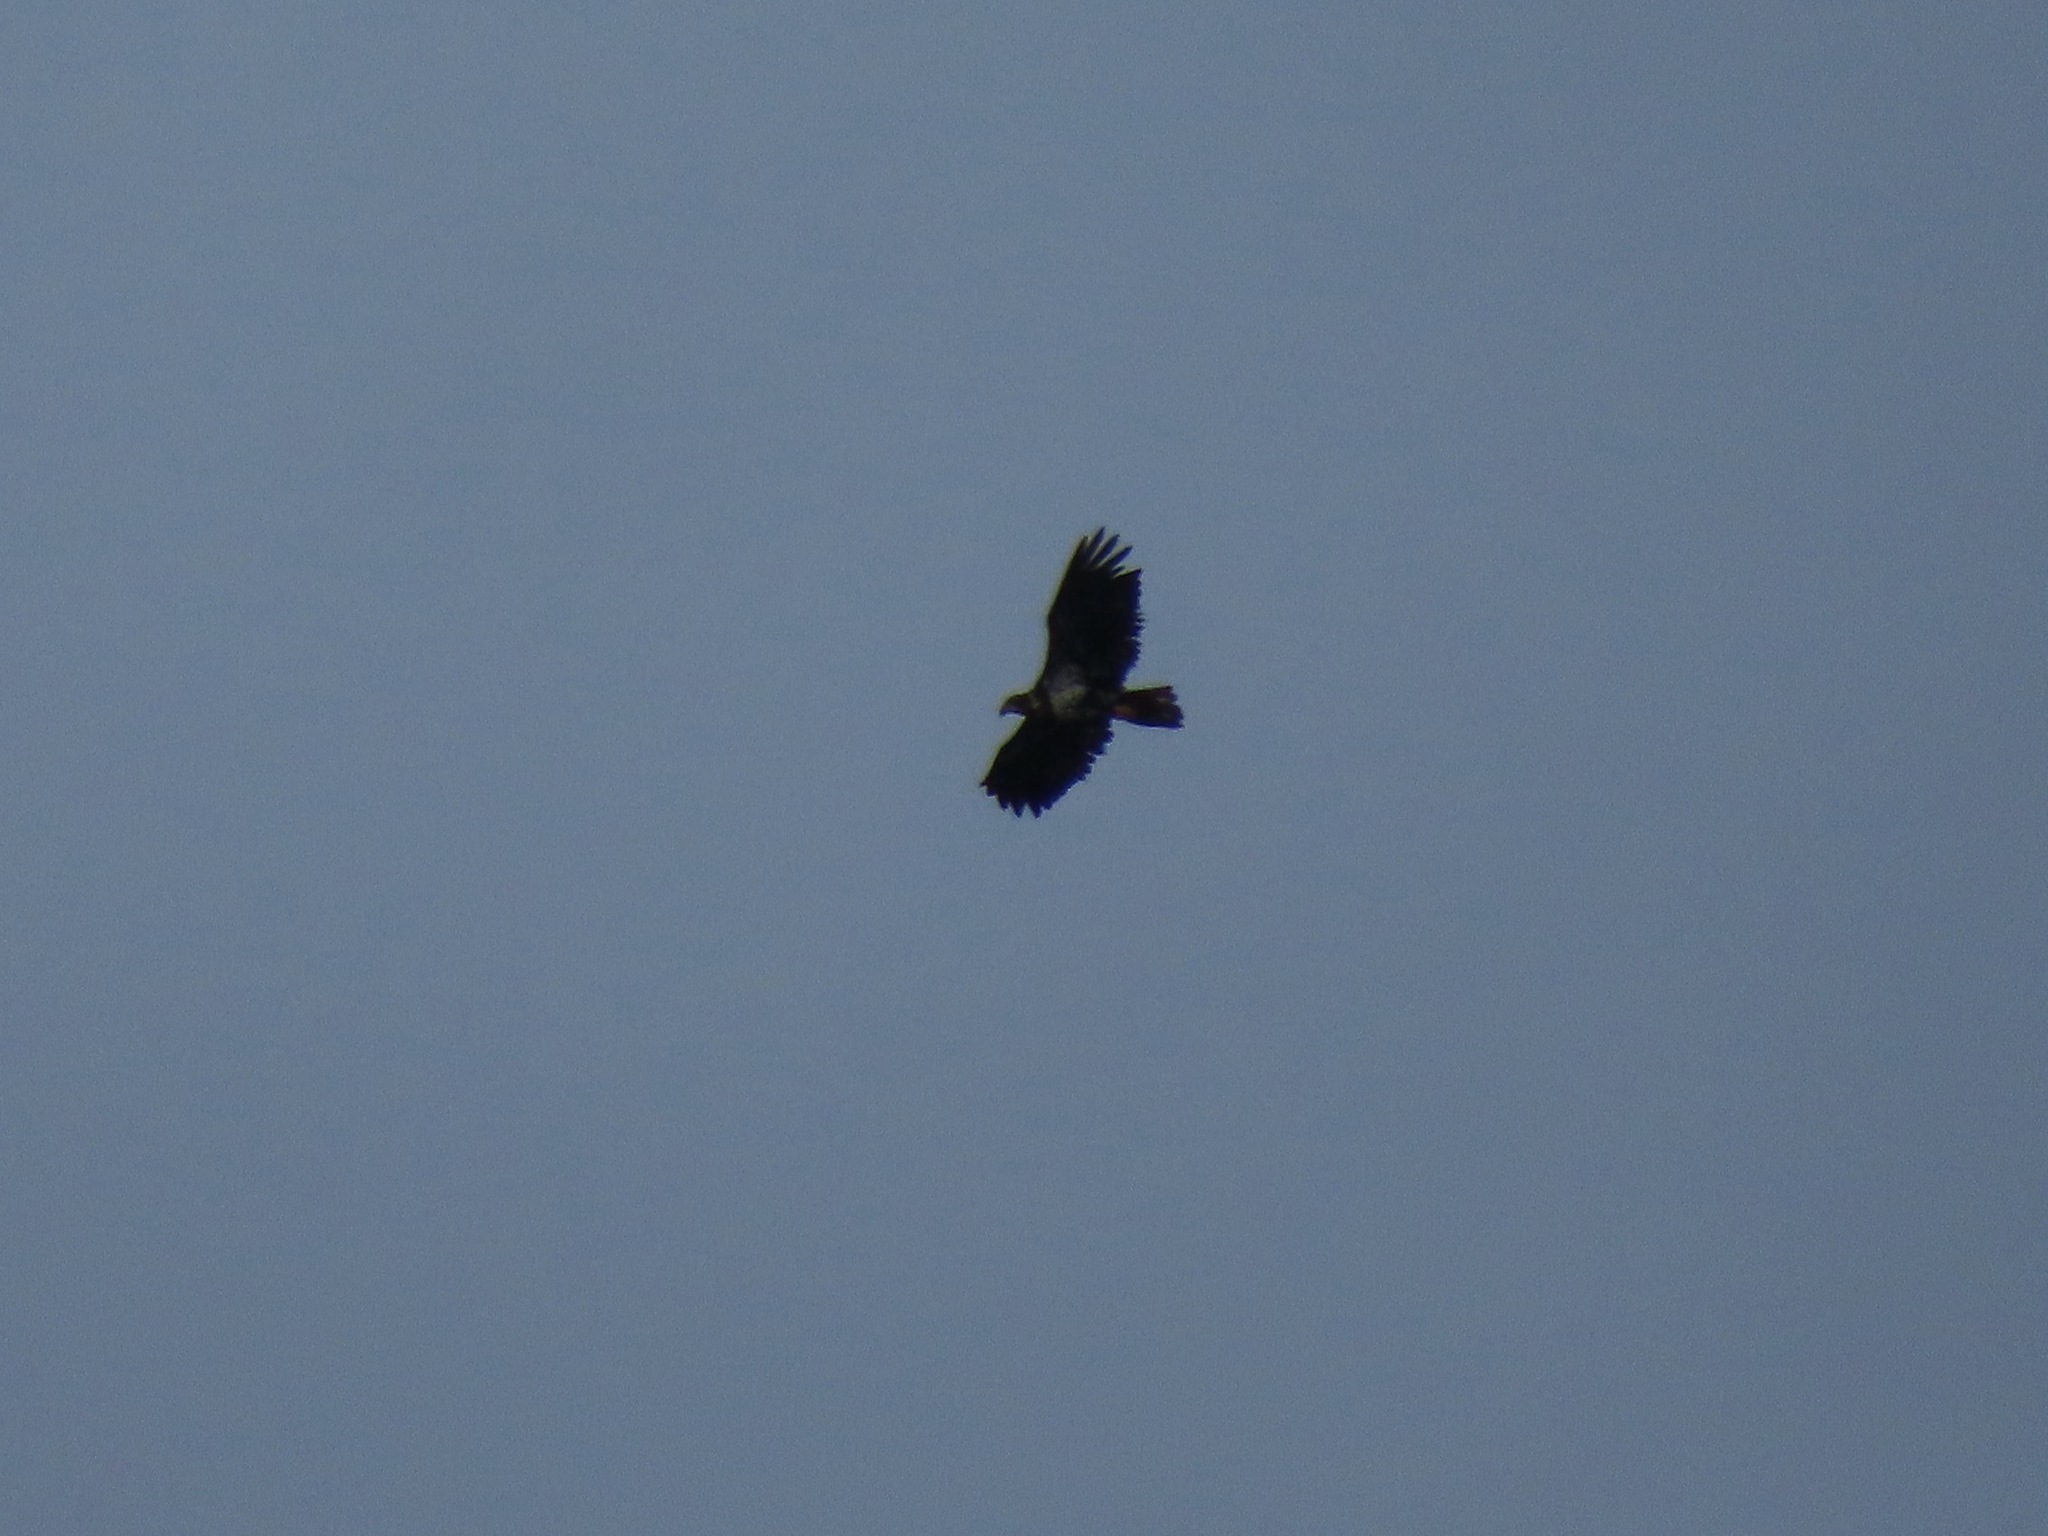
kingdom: Animalia
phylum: Chordata
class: Aves
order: Accipitriformes
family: Accipitridae
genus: Haliaeetus
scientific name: Haliaeetus leucocephalus
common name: Bald eagle
